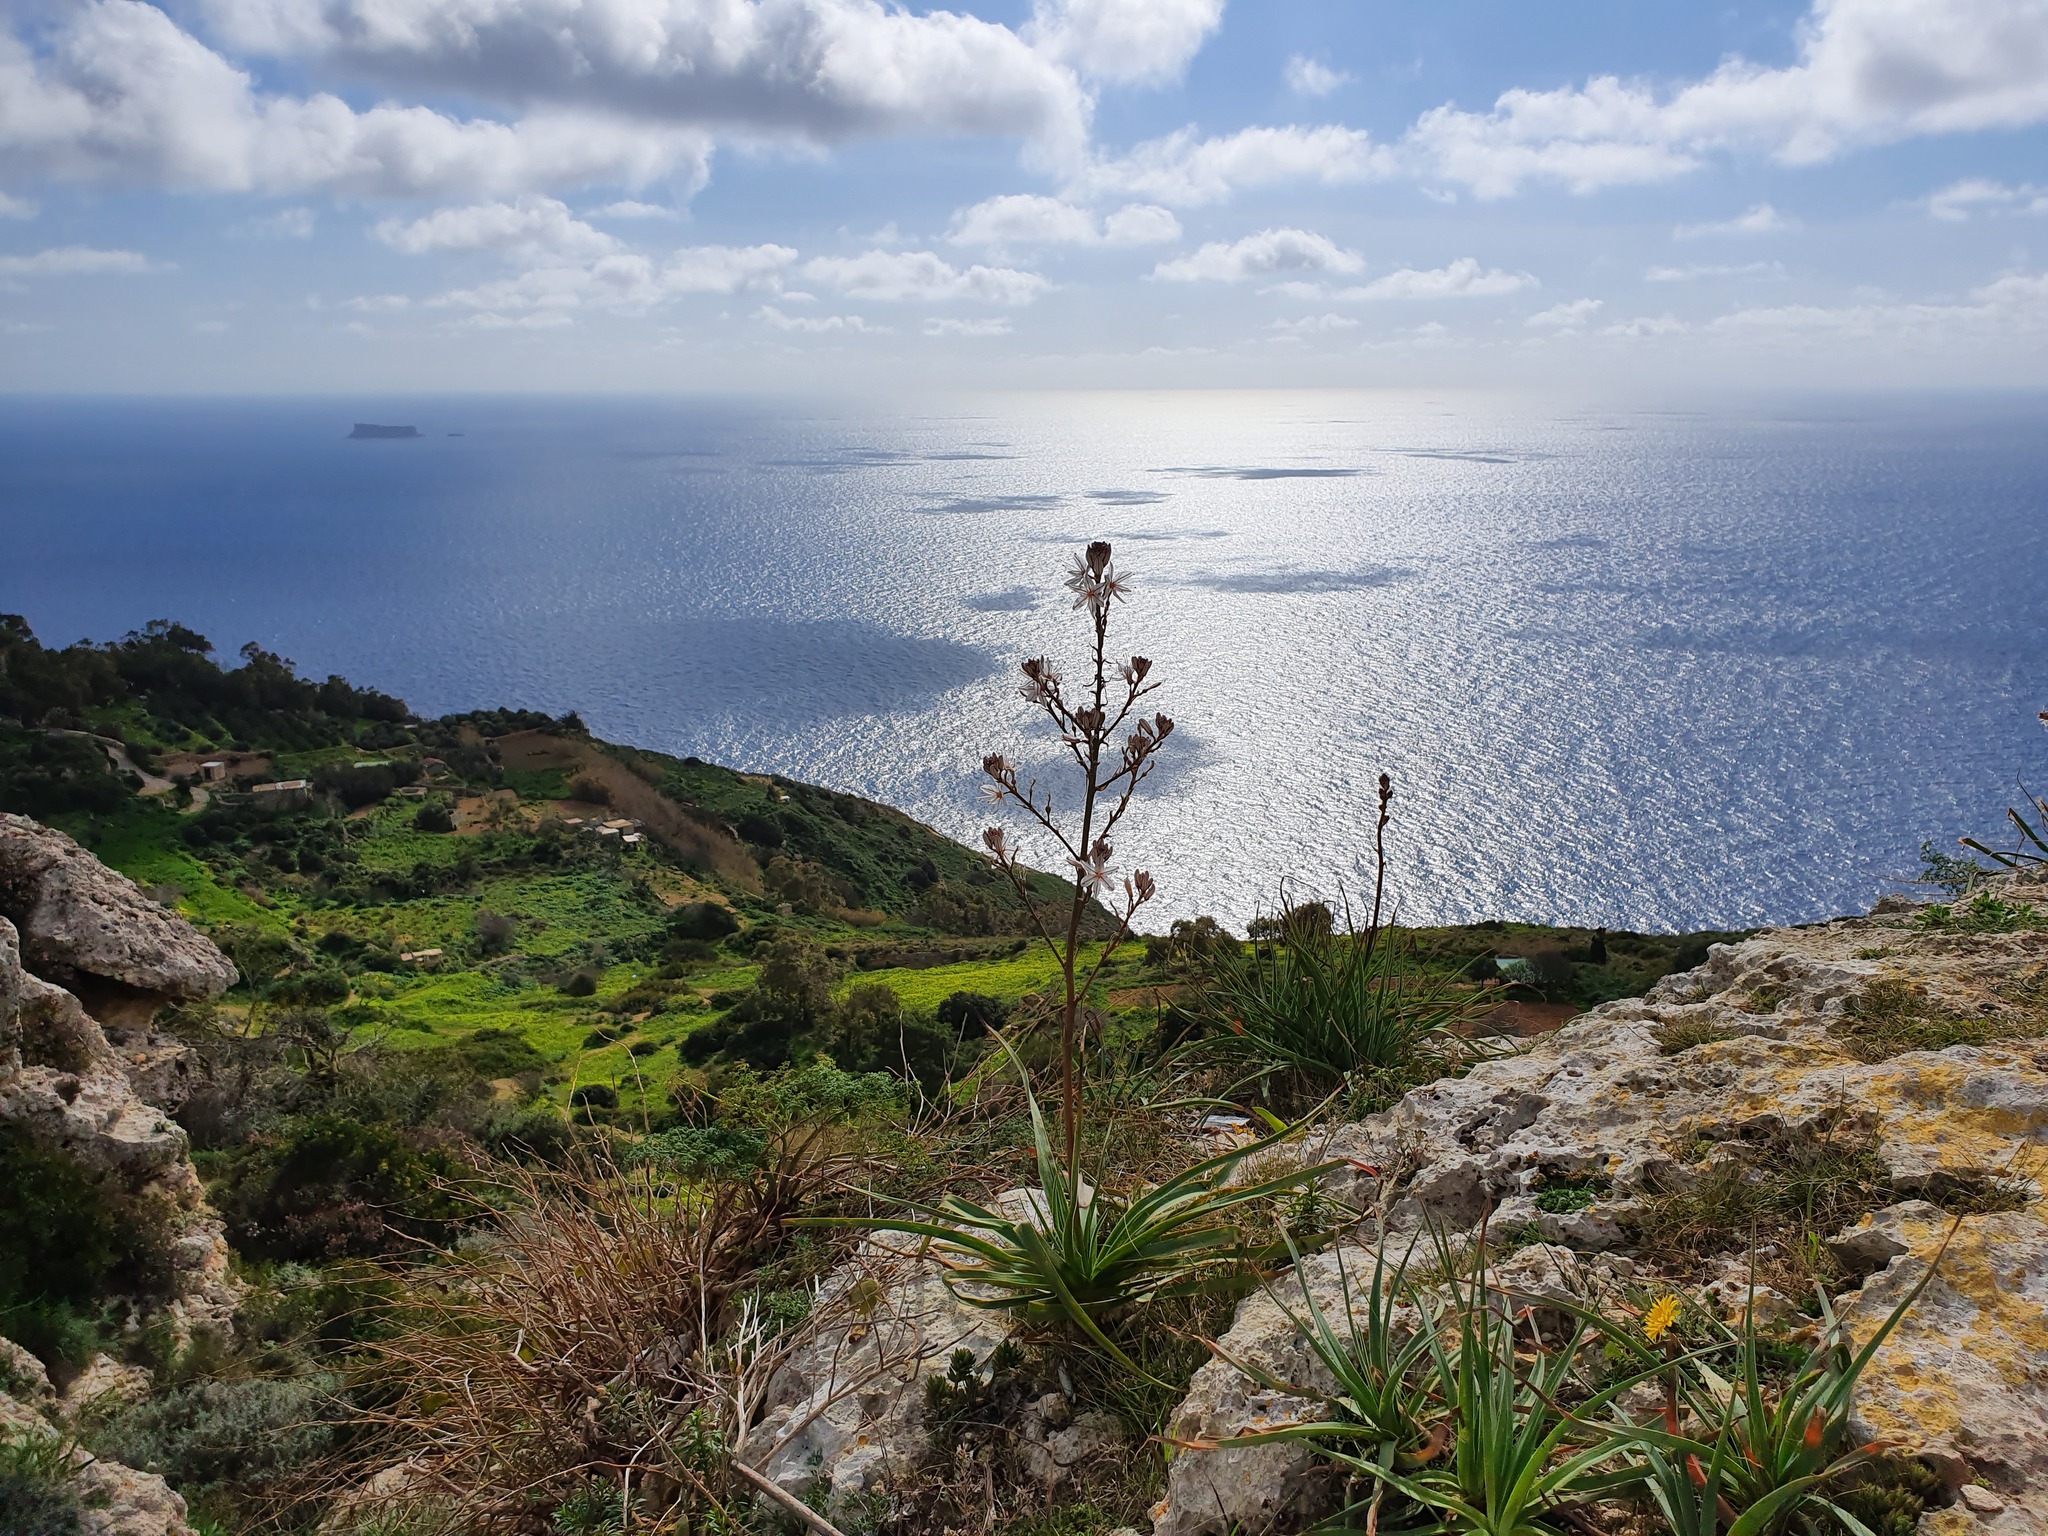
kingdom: Plantae
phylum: Tracheophyta
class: Liliopsida
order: Asparagales
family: Asphodelaceae
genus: Asphodelus
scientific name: Asphodelus ramosus
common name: Silverrod
